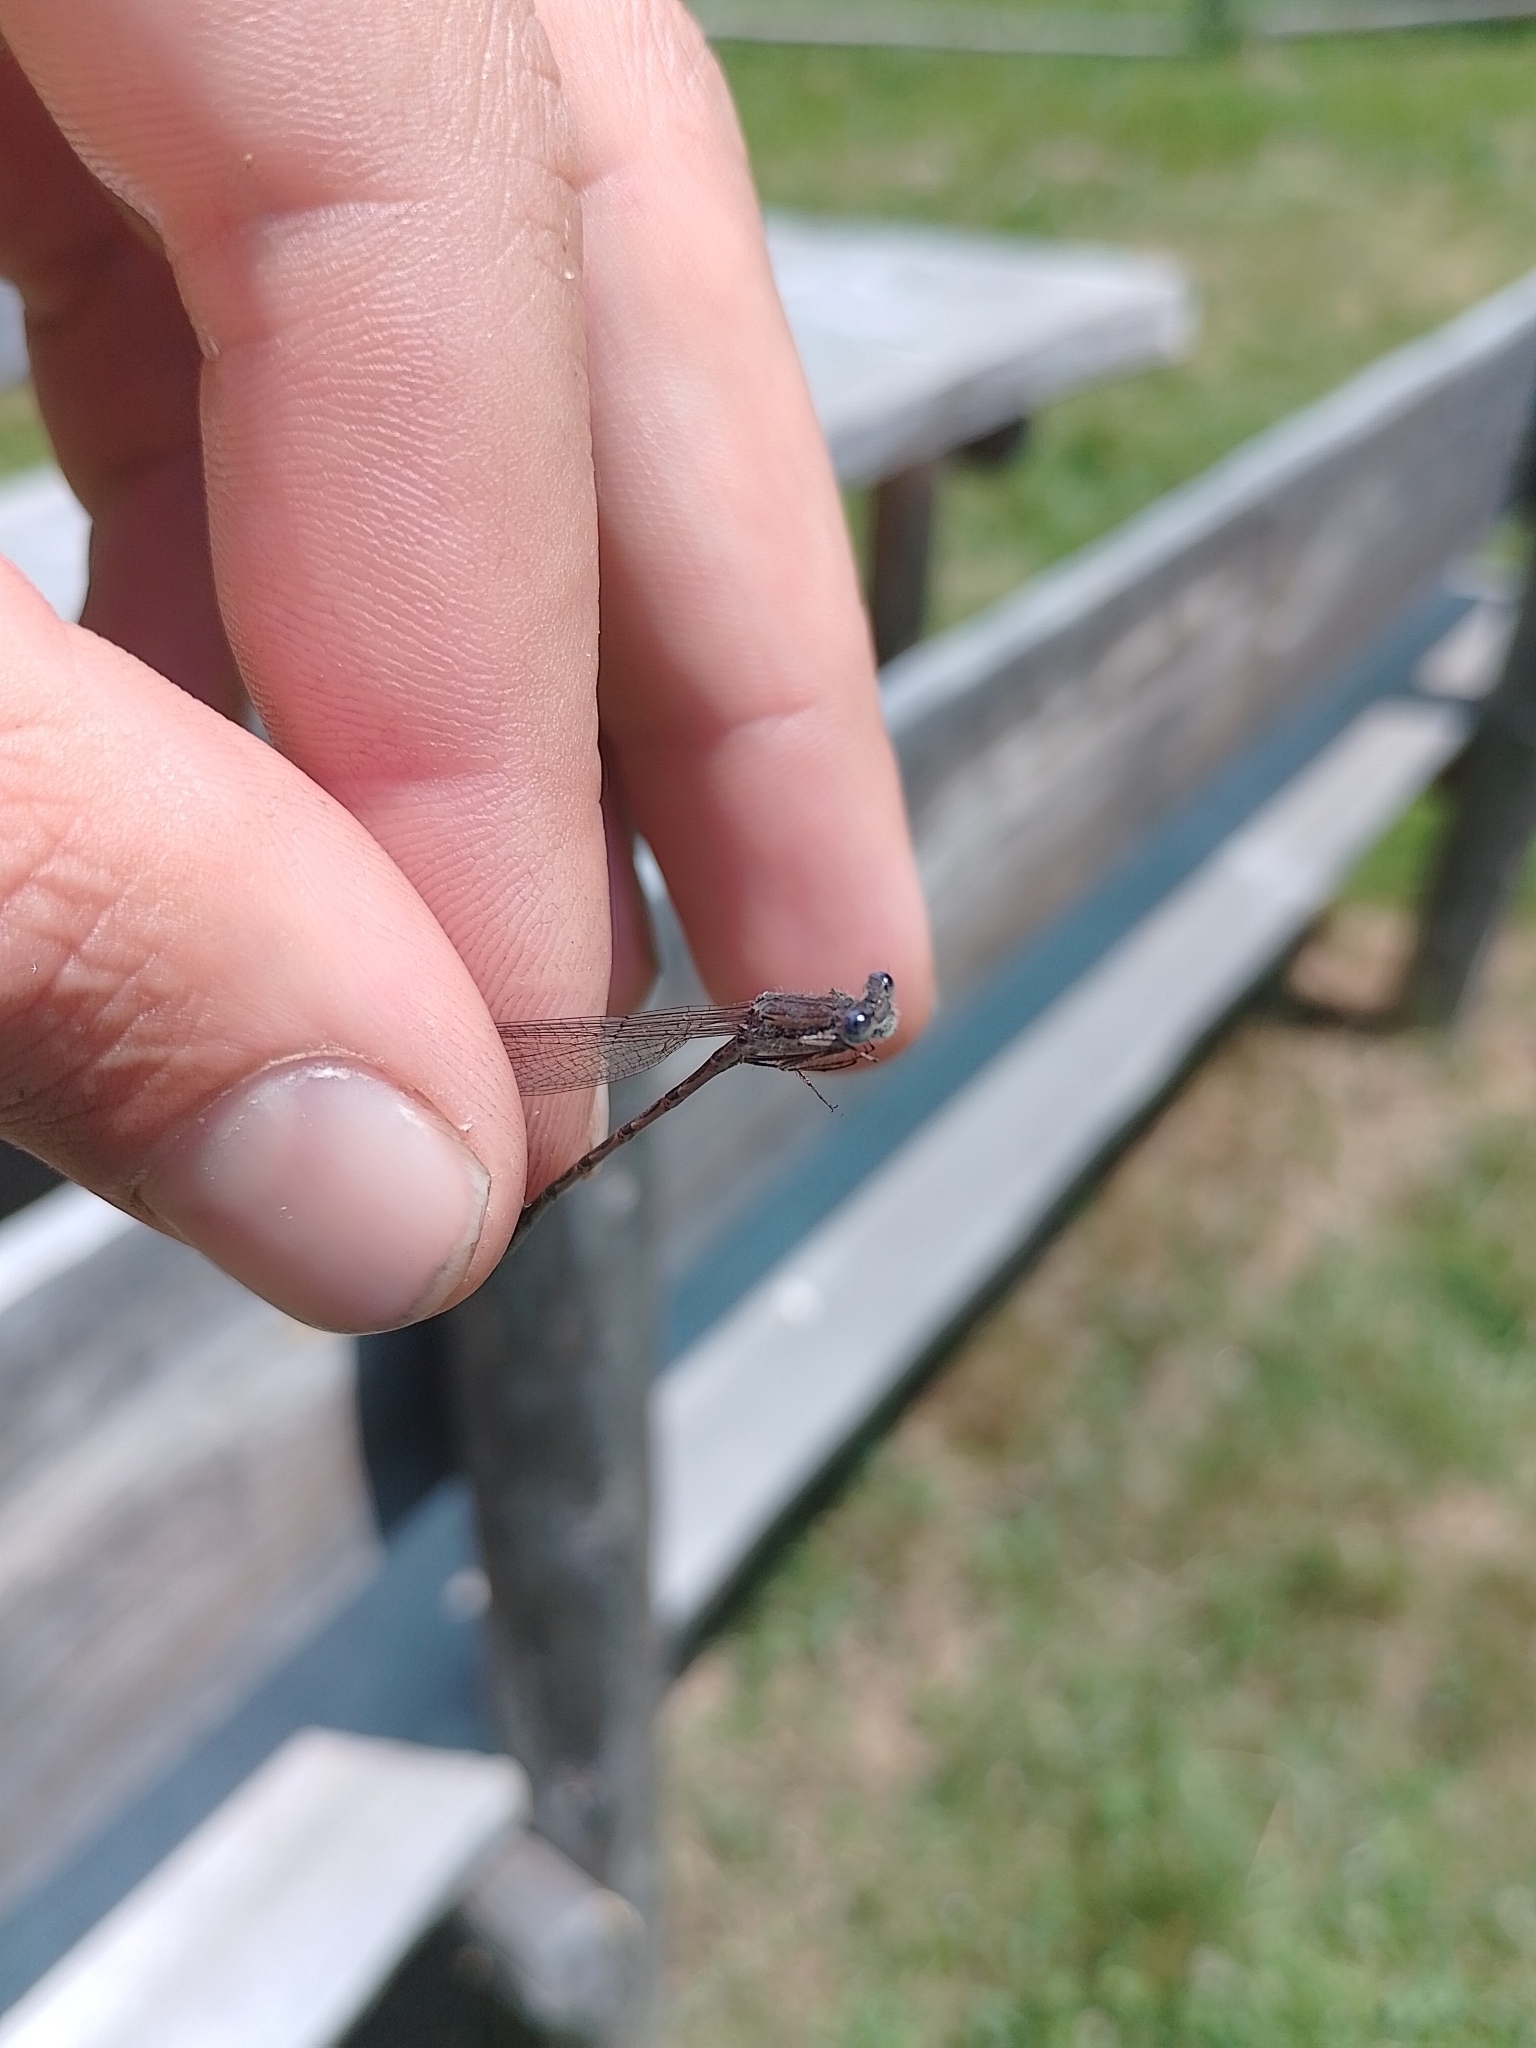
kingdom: Animalia
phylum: Arthropoda
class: Insecta
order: Odonata
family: Lestidae
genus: Sympecma
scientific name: Sympecma fusca
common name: Common winter damsel
